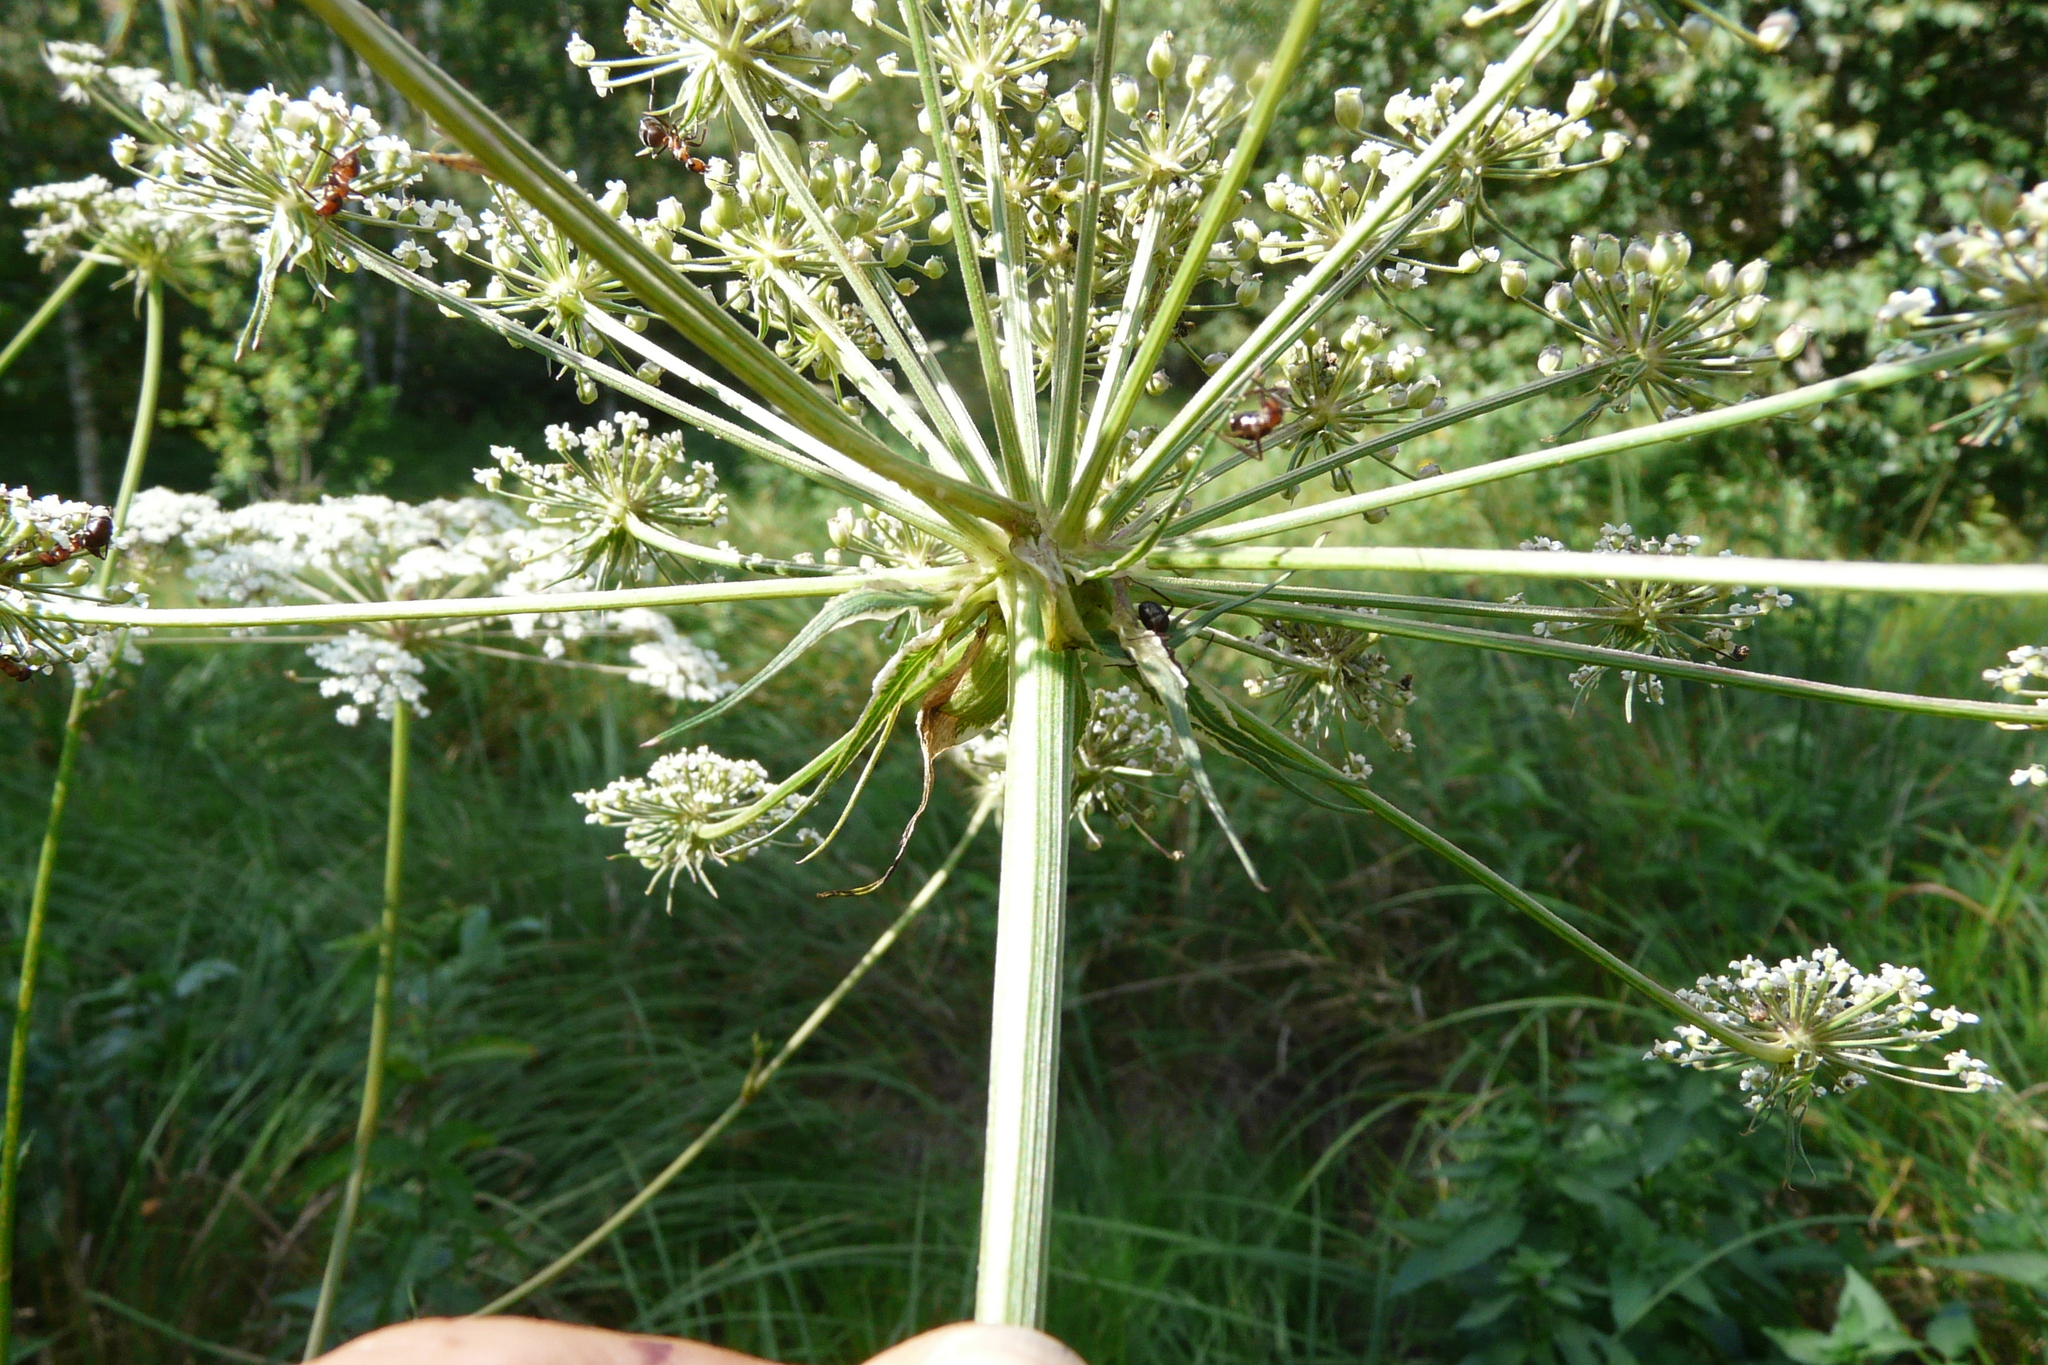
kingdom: Plantae
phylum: Tracheophyta
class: Magnoliopsida
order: Apiales
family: Apiaceae
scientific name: Apiaceae
